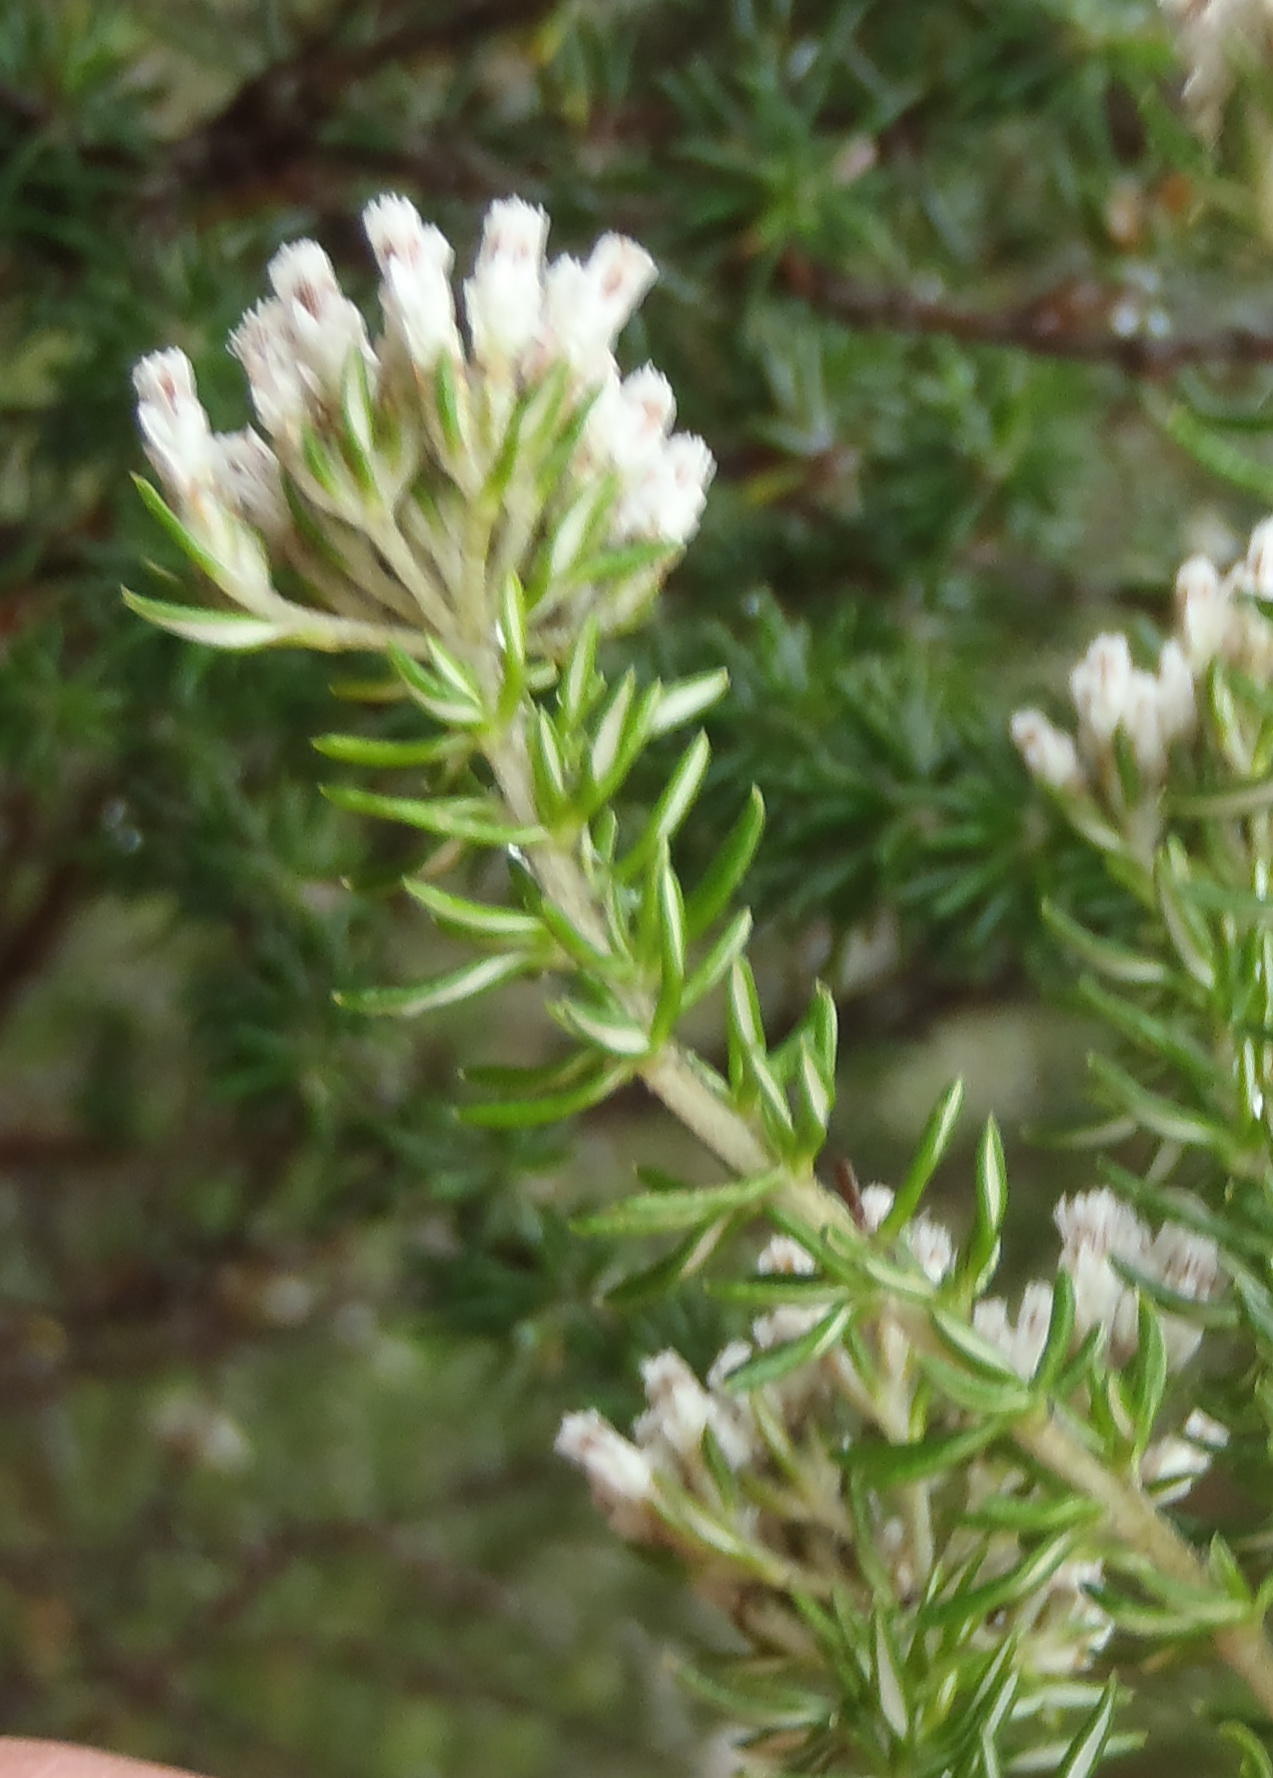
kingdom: Plantae
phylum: Tracheophyta
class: Magnoliopsida
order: Asterales
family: Asteraceae
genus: Metalasia
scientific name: Metalasia muricata
